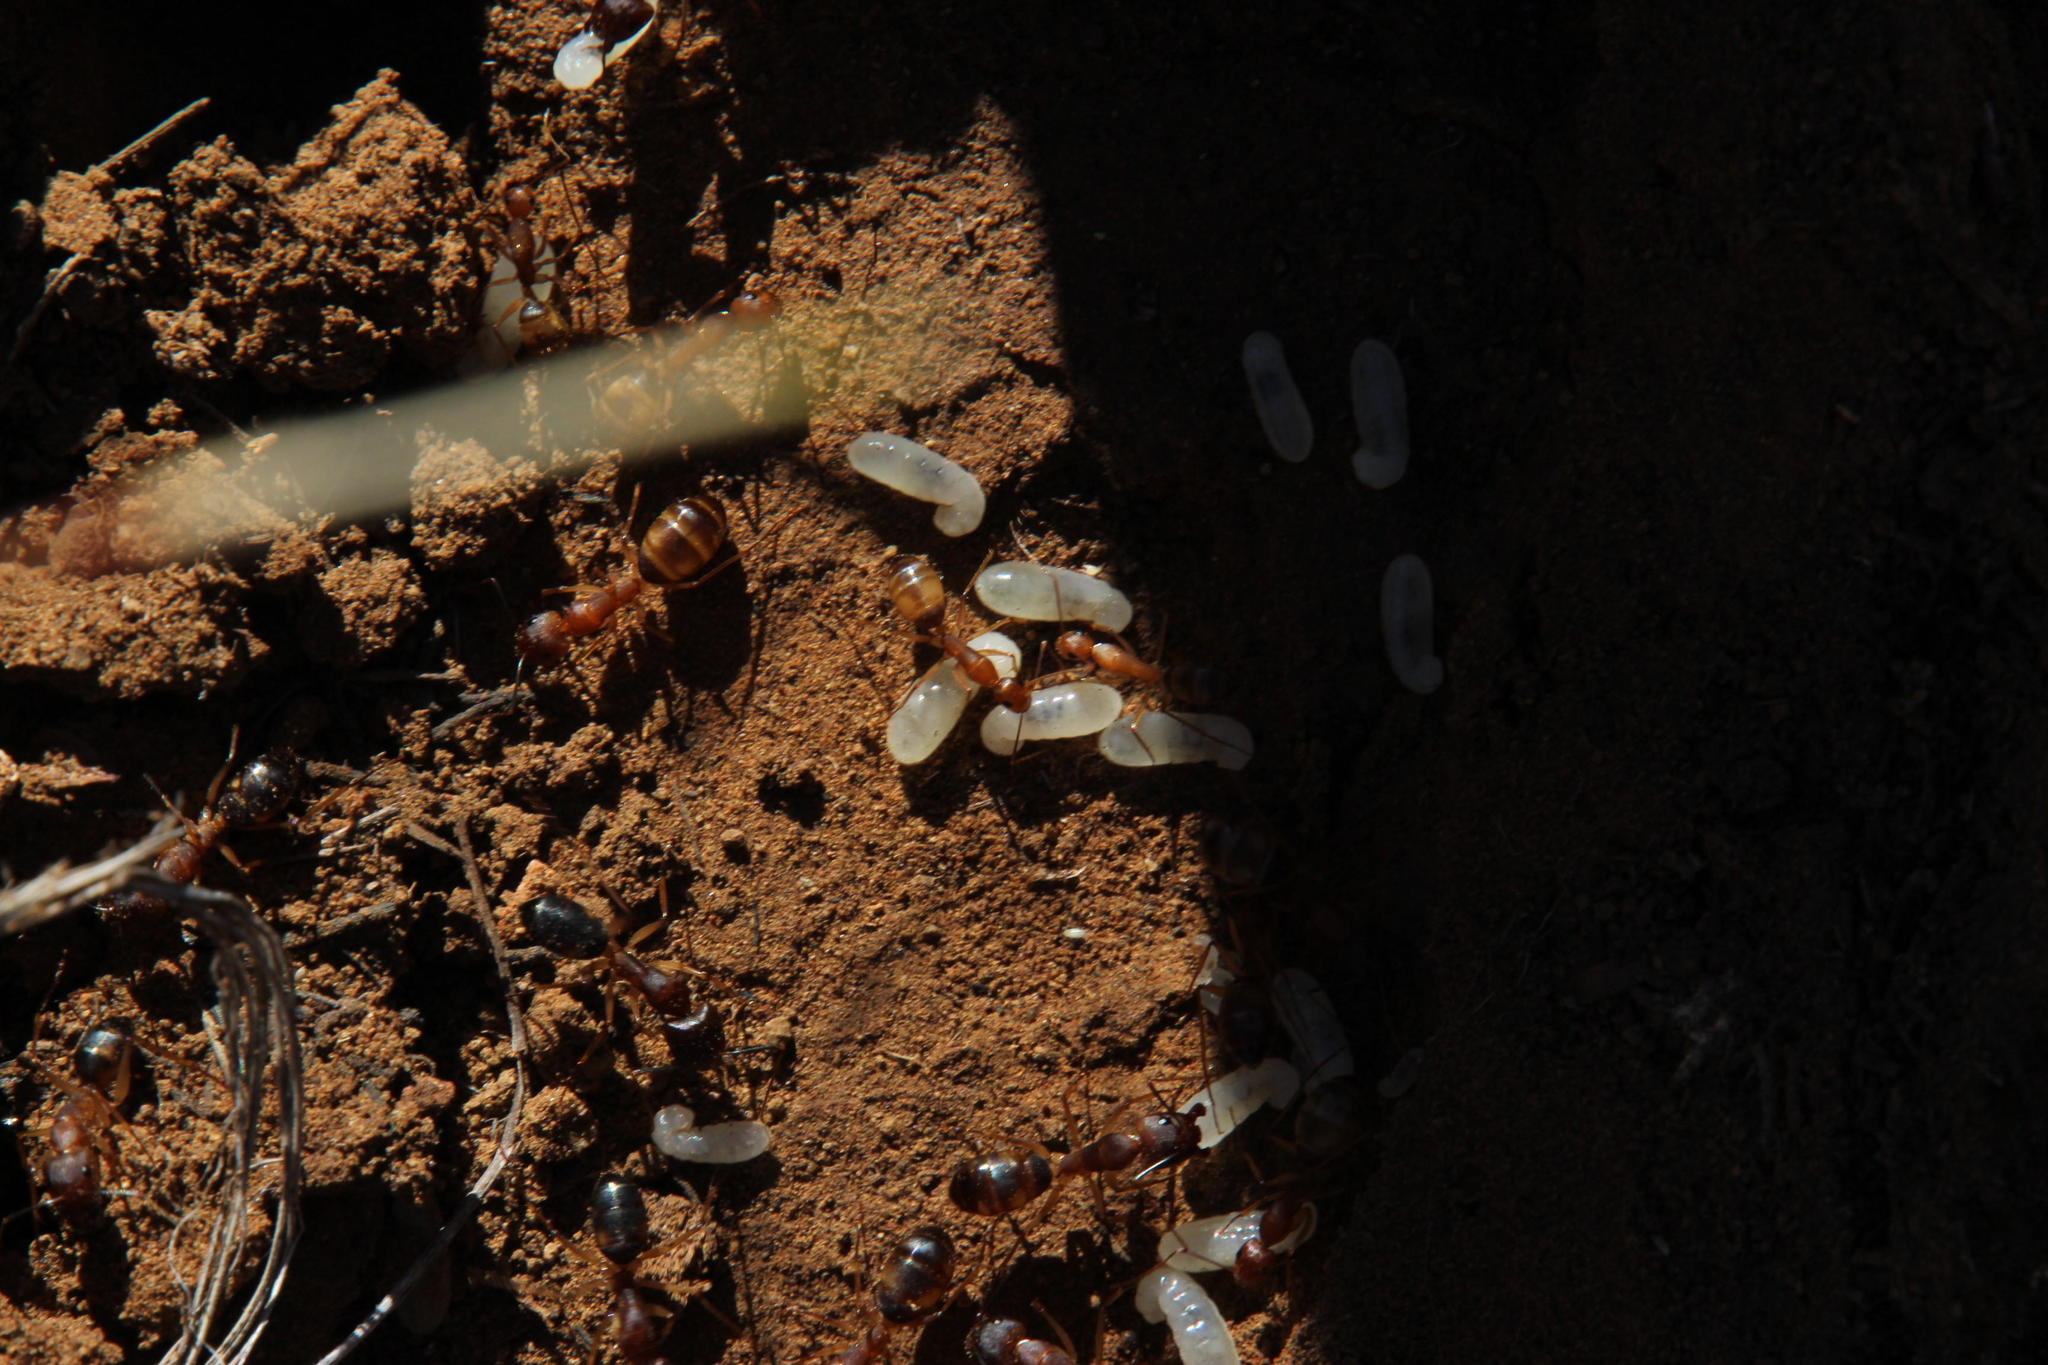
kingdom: Animalia
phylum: Arthropoda
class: Insecta
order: Hymenoptera
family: Formicidae
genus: Camponotus
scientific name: Camponotus maculatus
